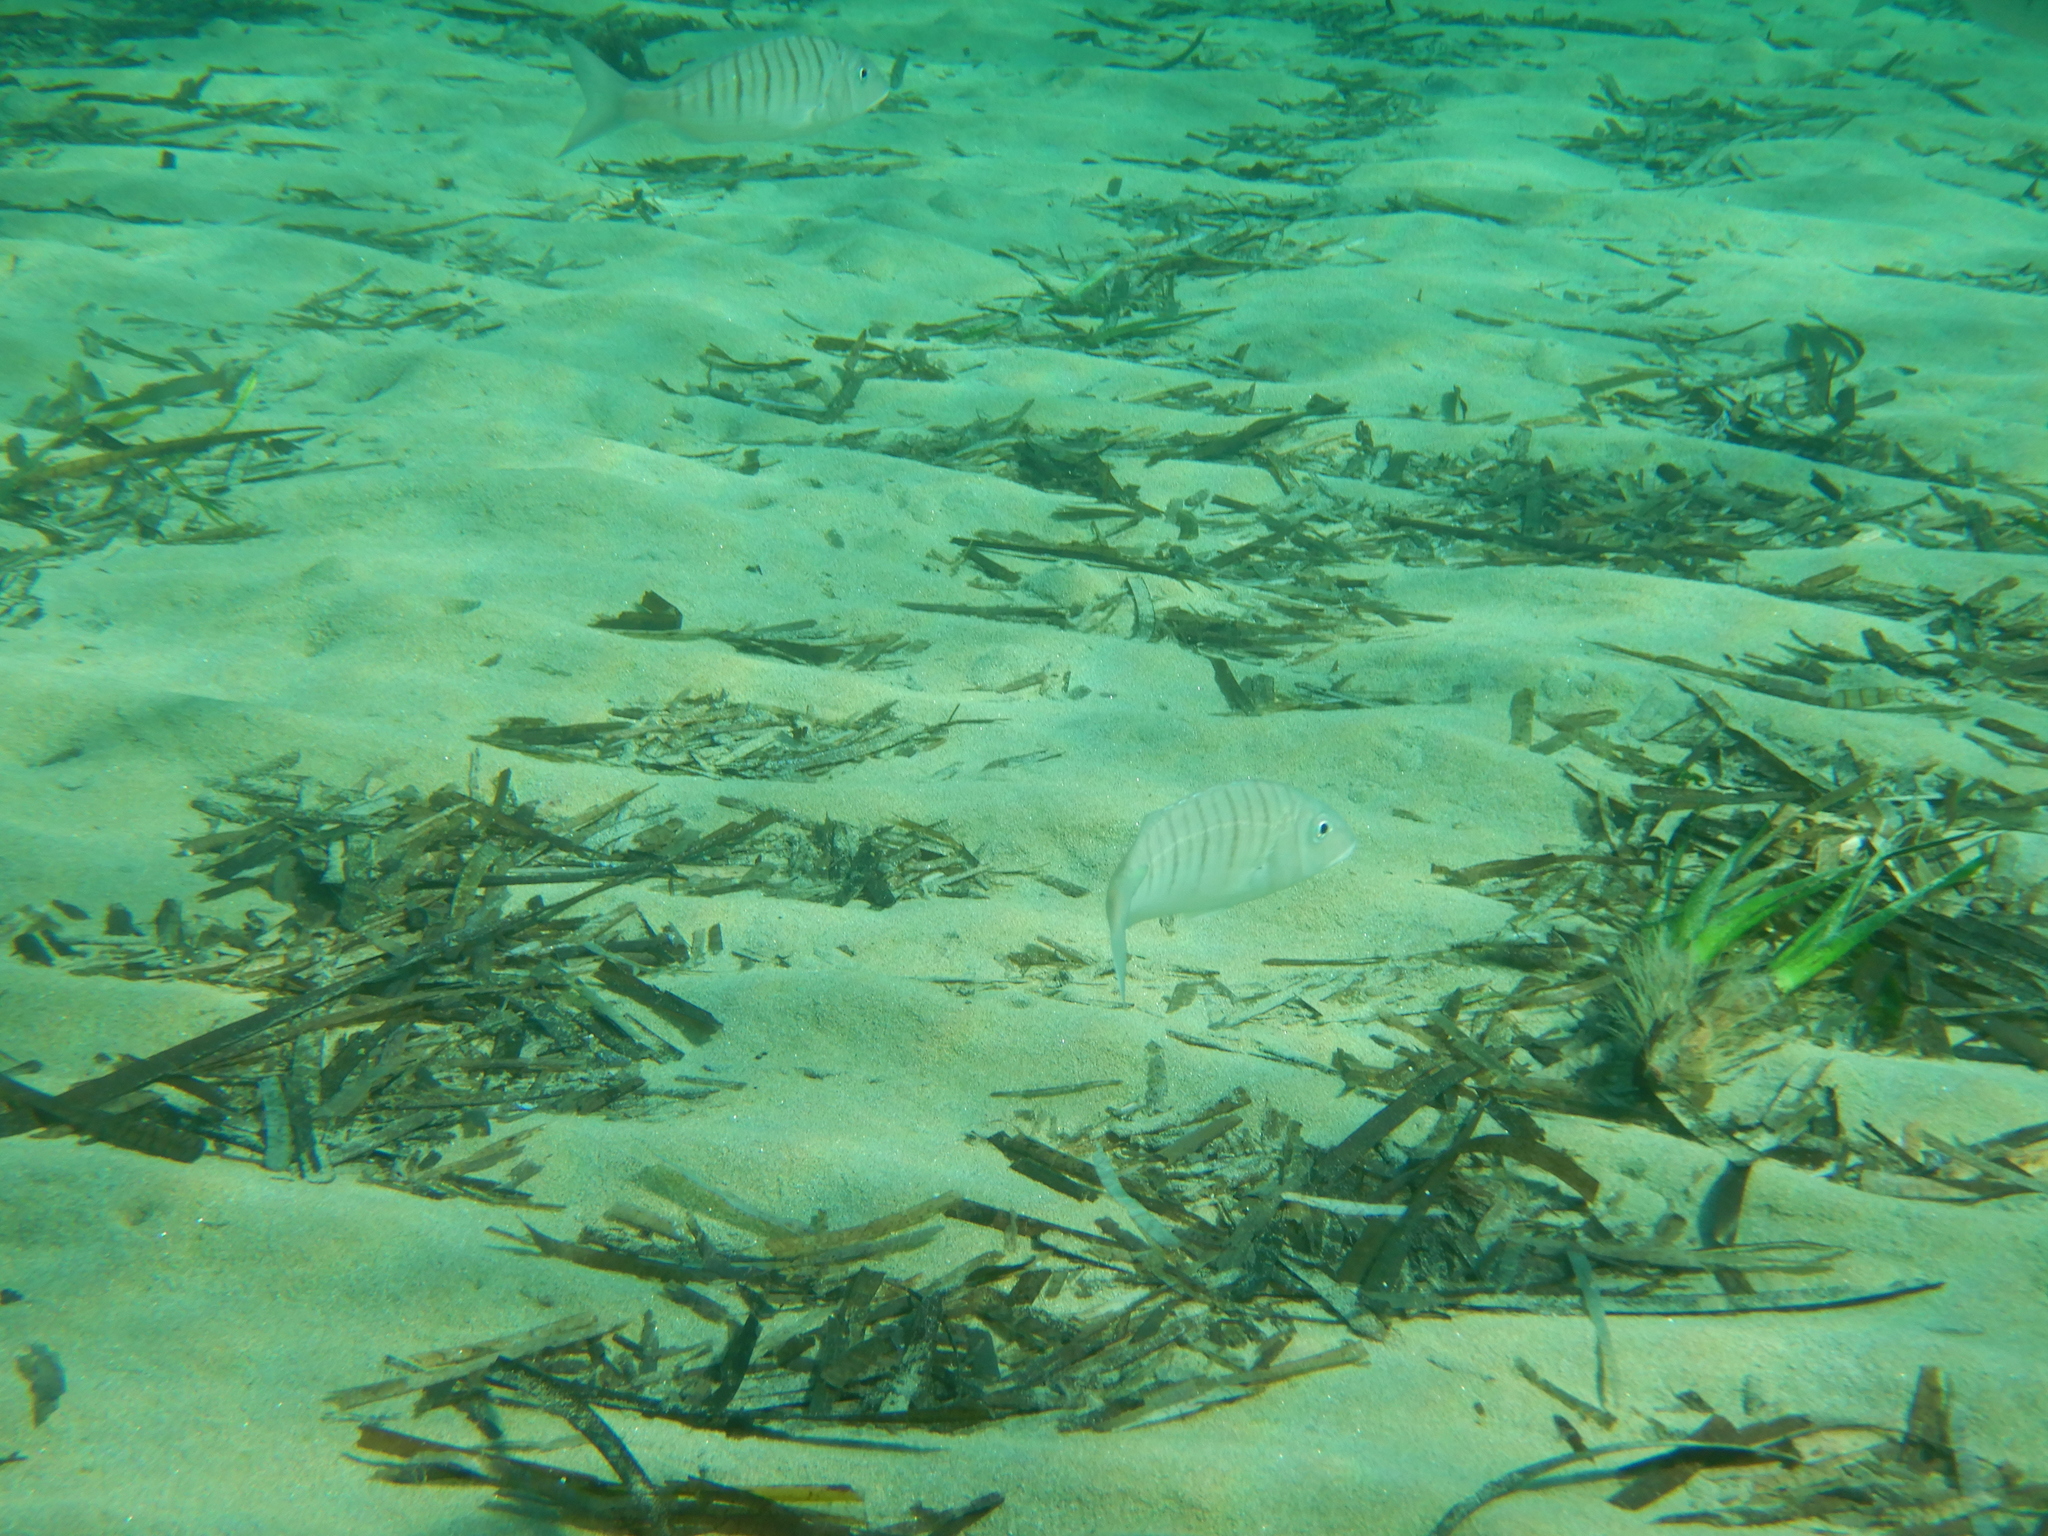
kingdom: Animalia
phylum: Chordata
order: Perciformes
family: Sparidae
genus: Lithognathus
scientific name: Lithognathus mormyrus
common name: Sand steenbras
